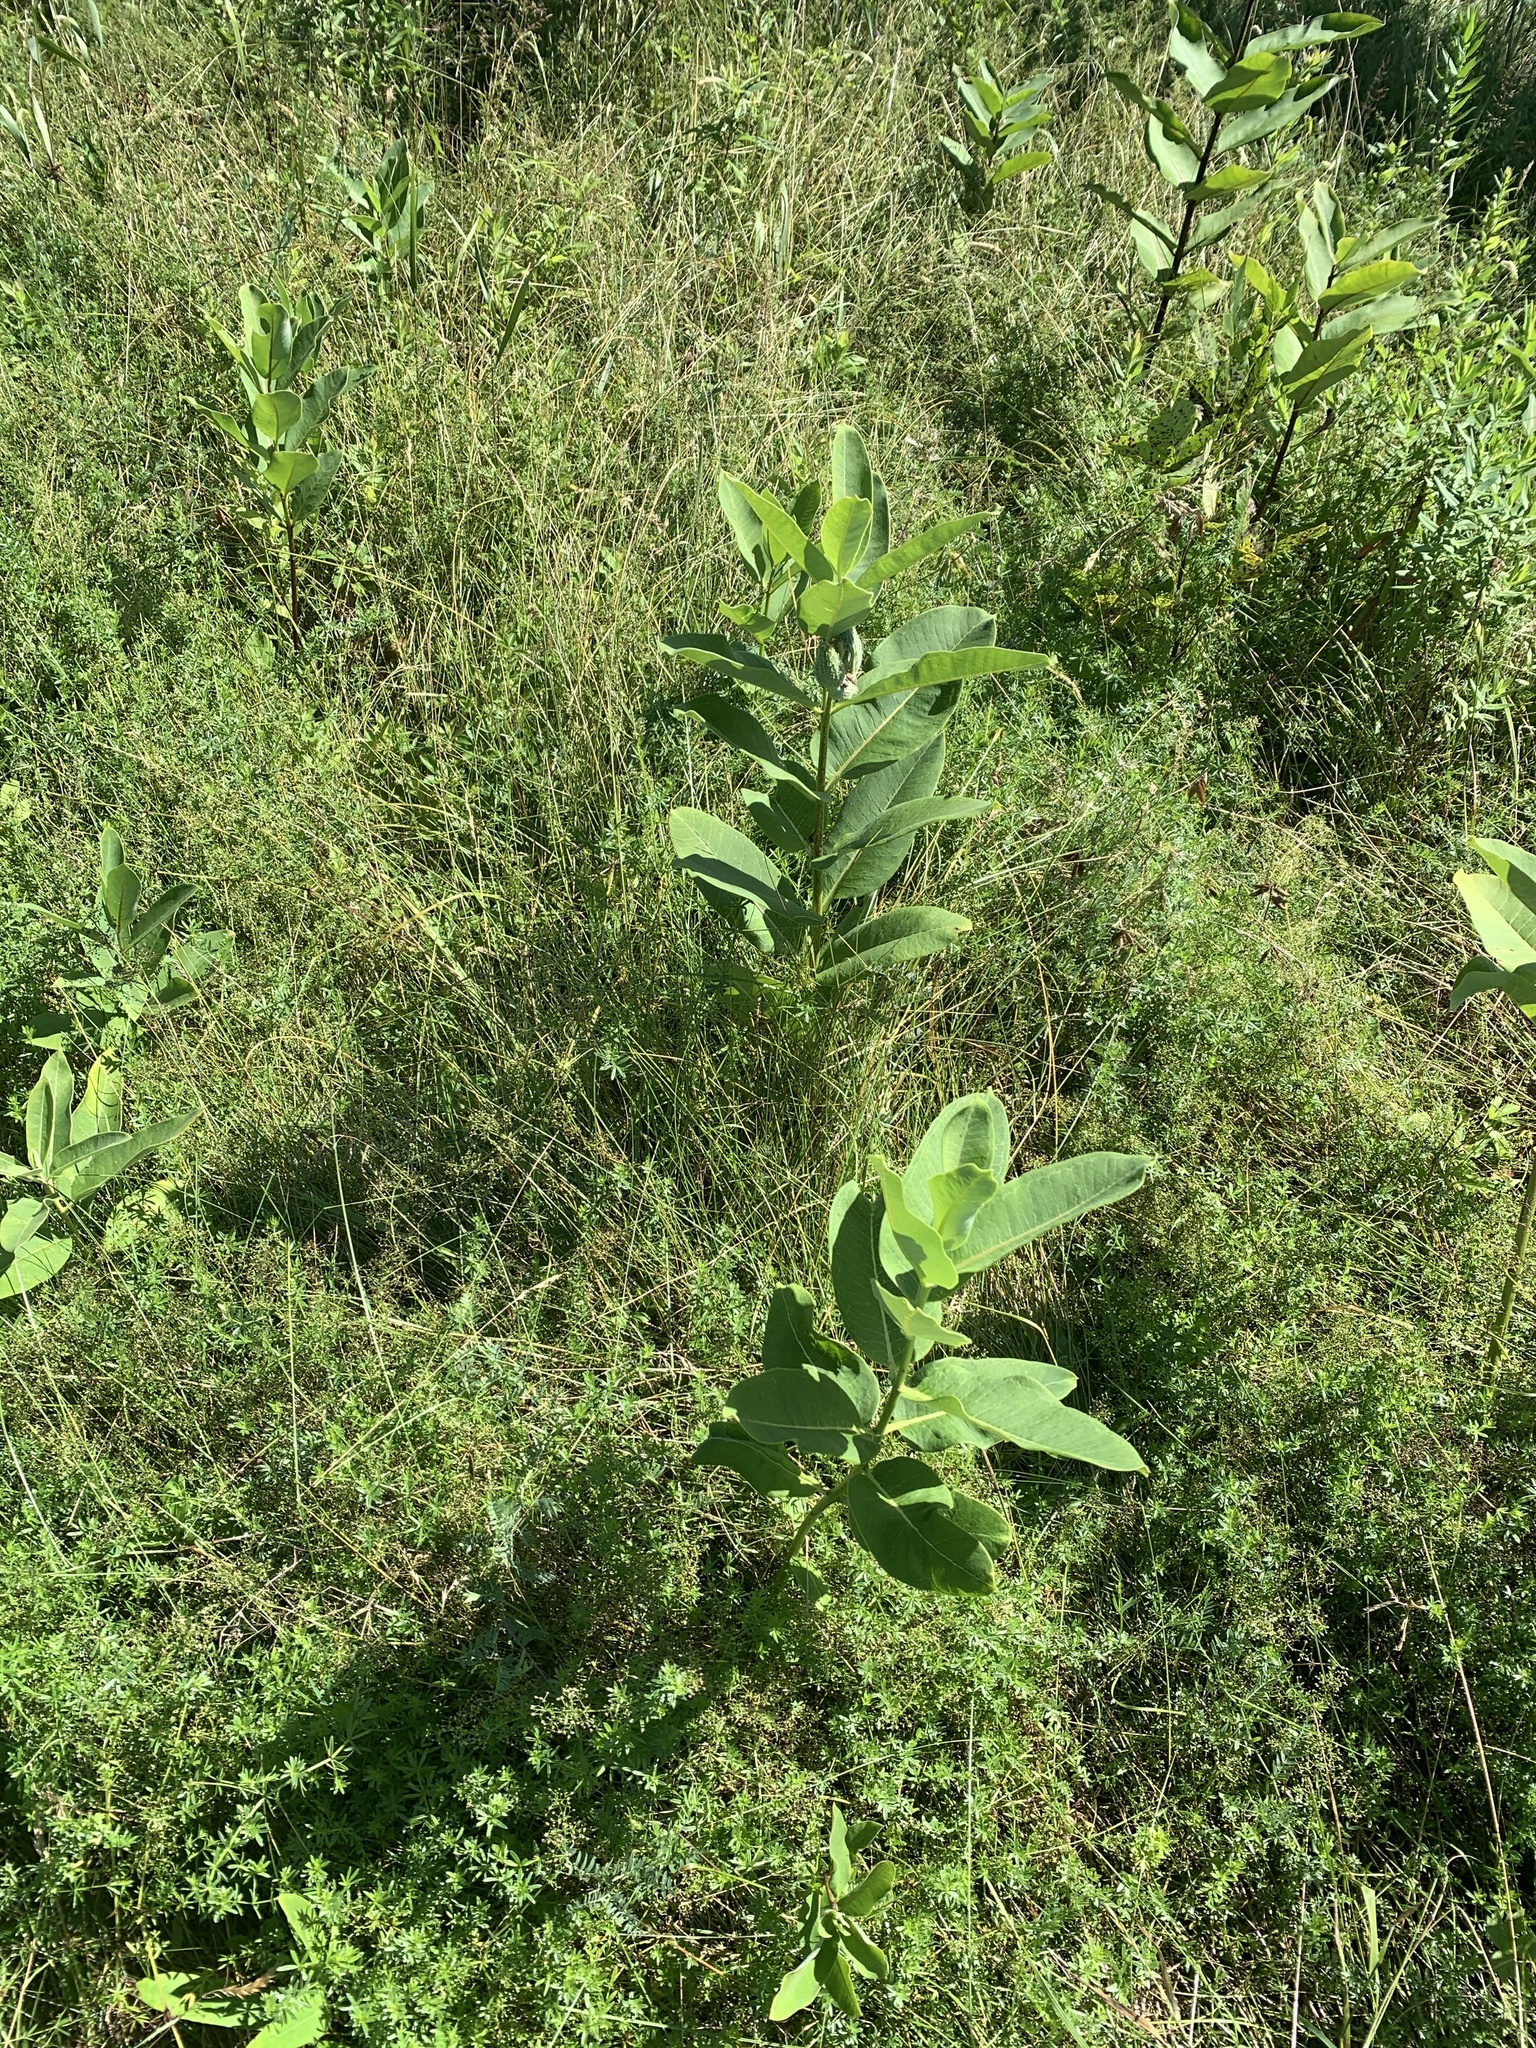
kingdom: Plantae
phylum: Tracheophyta
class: Magnoliopsida
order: Gentianales
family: Apocynaceae
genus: Asclepias
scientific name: Asclepias syriaca
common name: Common milkweed
